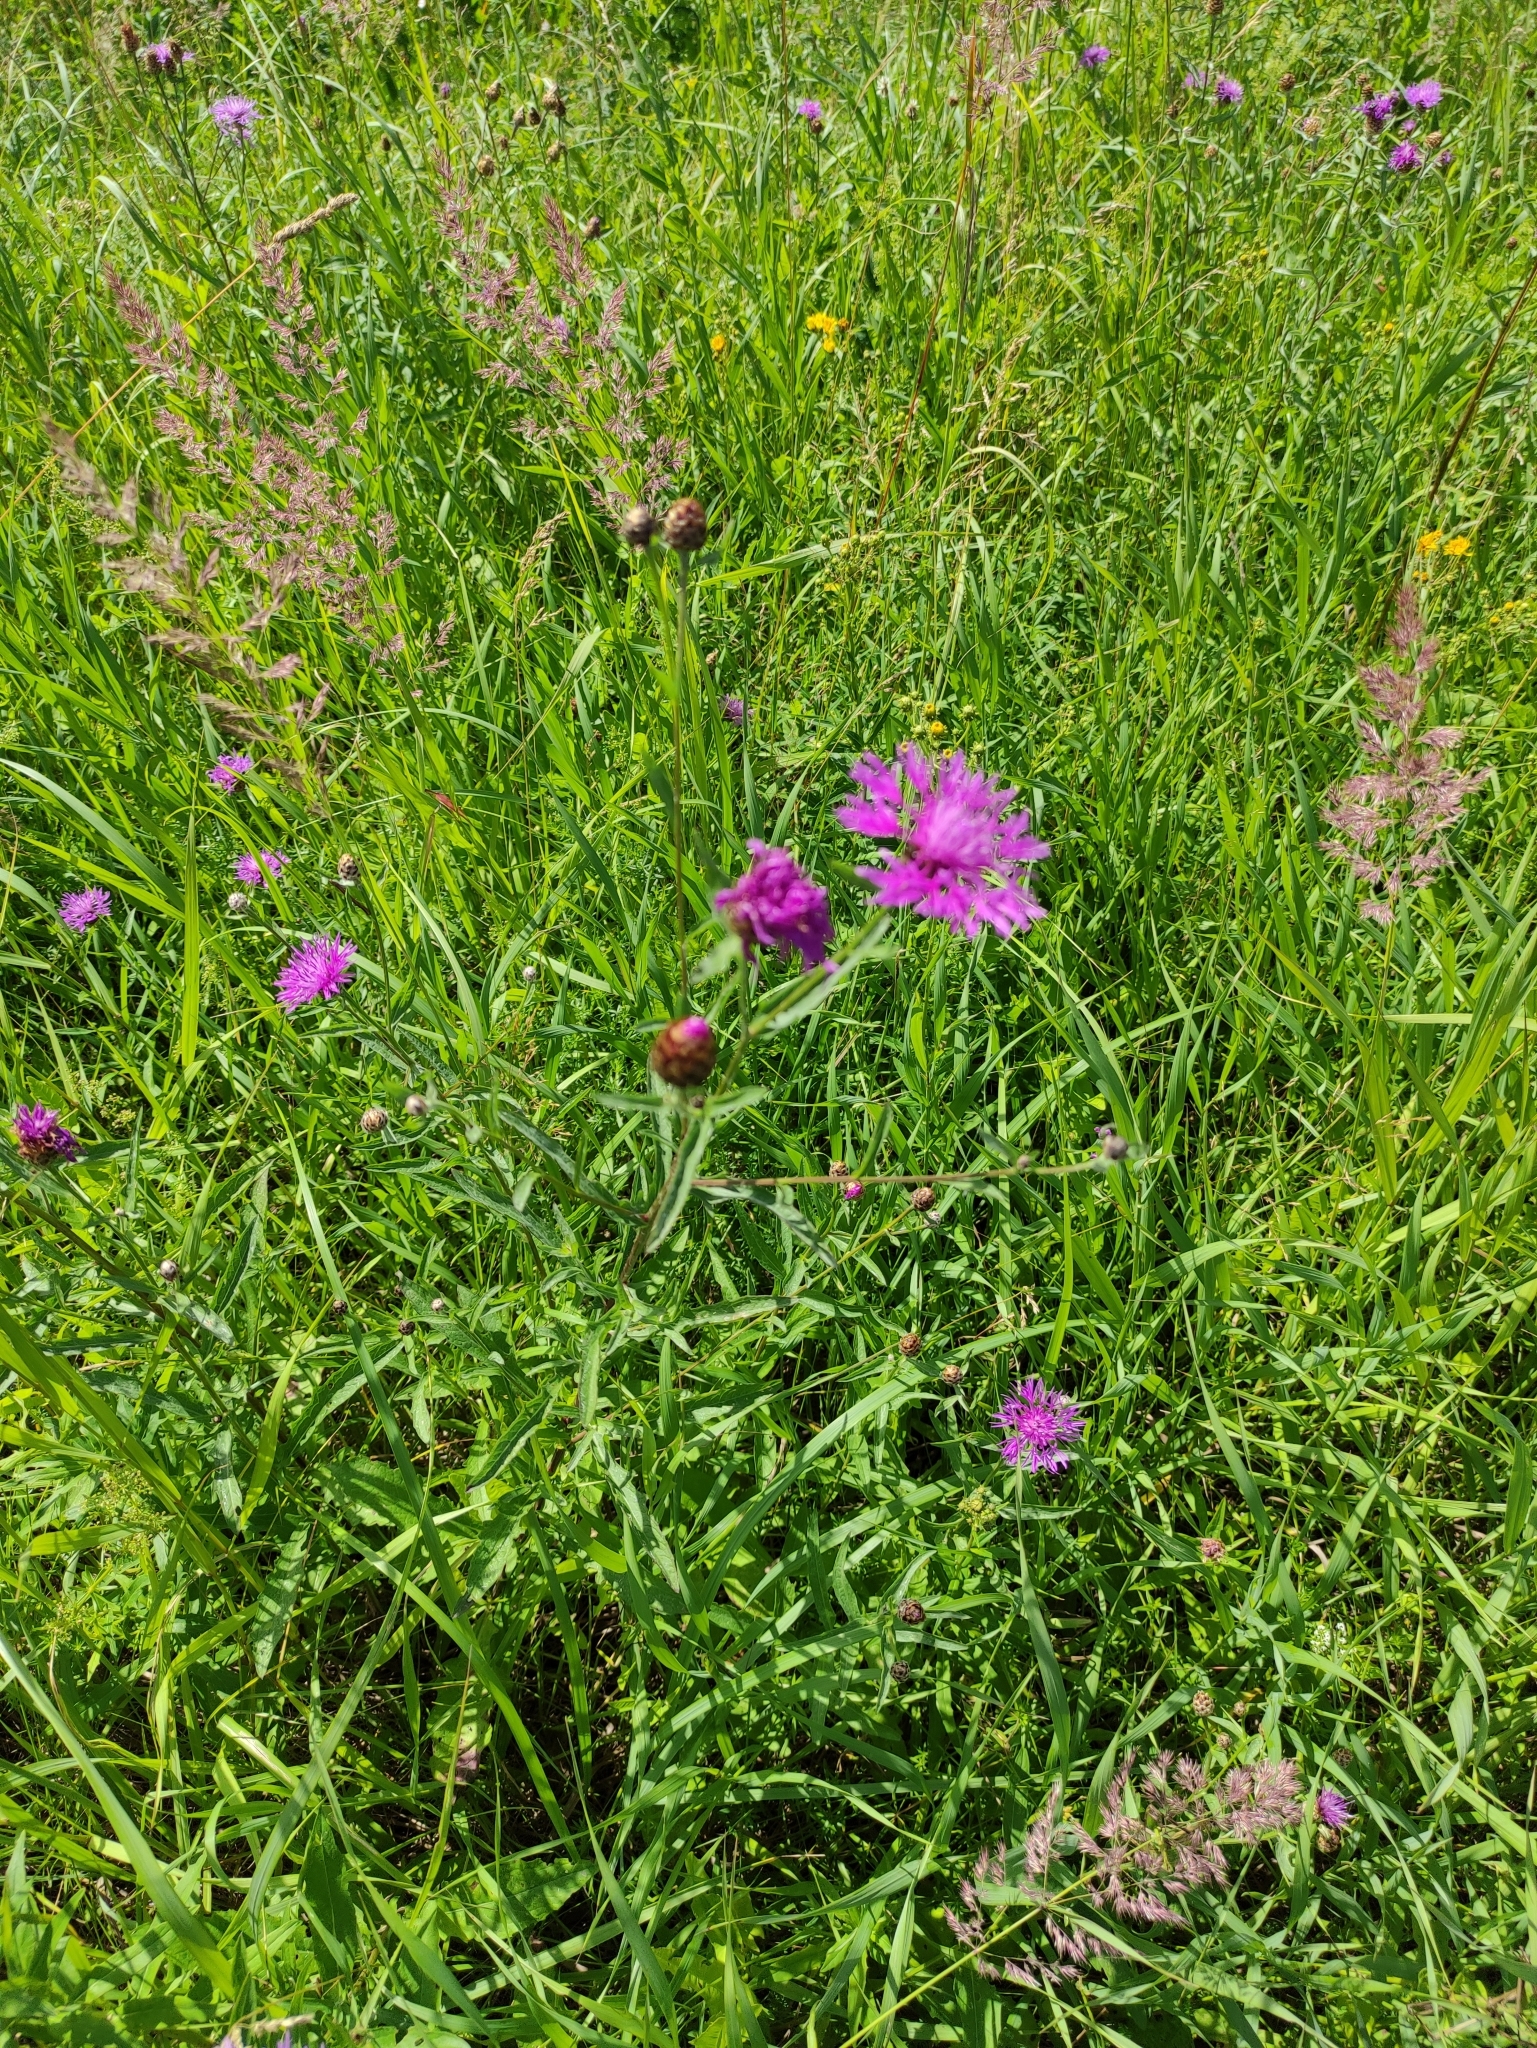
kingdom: Plantae
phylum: Tracheophyta
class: Magnoliopsida
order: Asterales
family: Asteraceae
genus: Centaurea
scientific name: Centaurea jacea
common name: Brown knapweed
